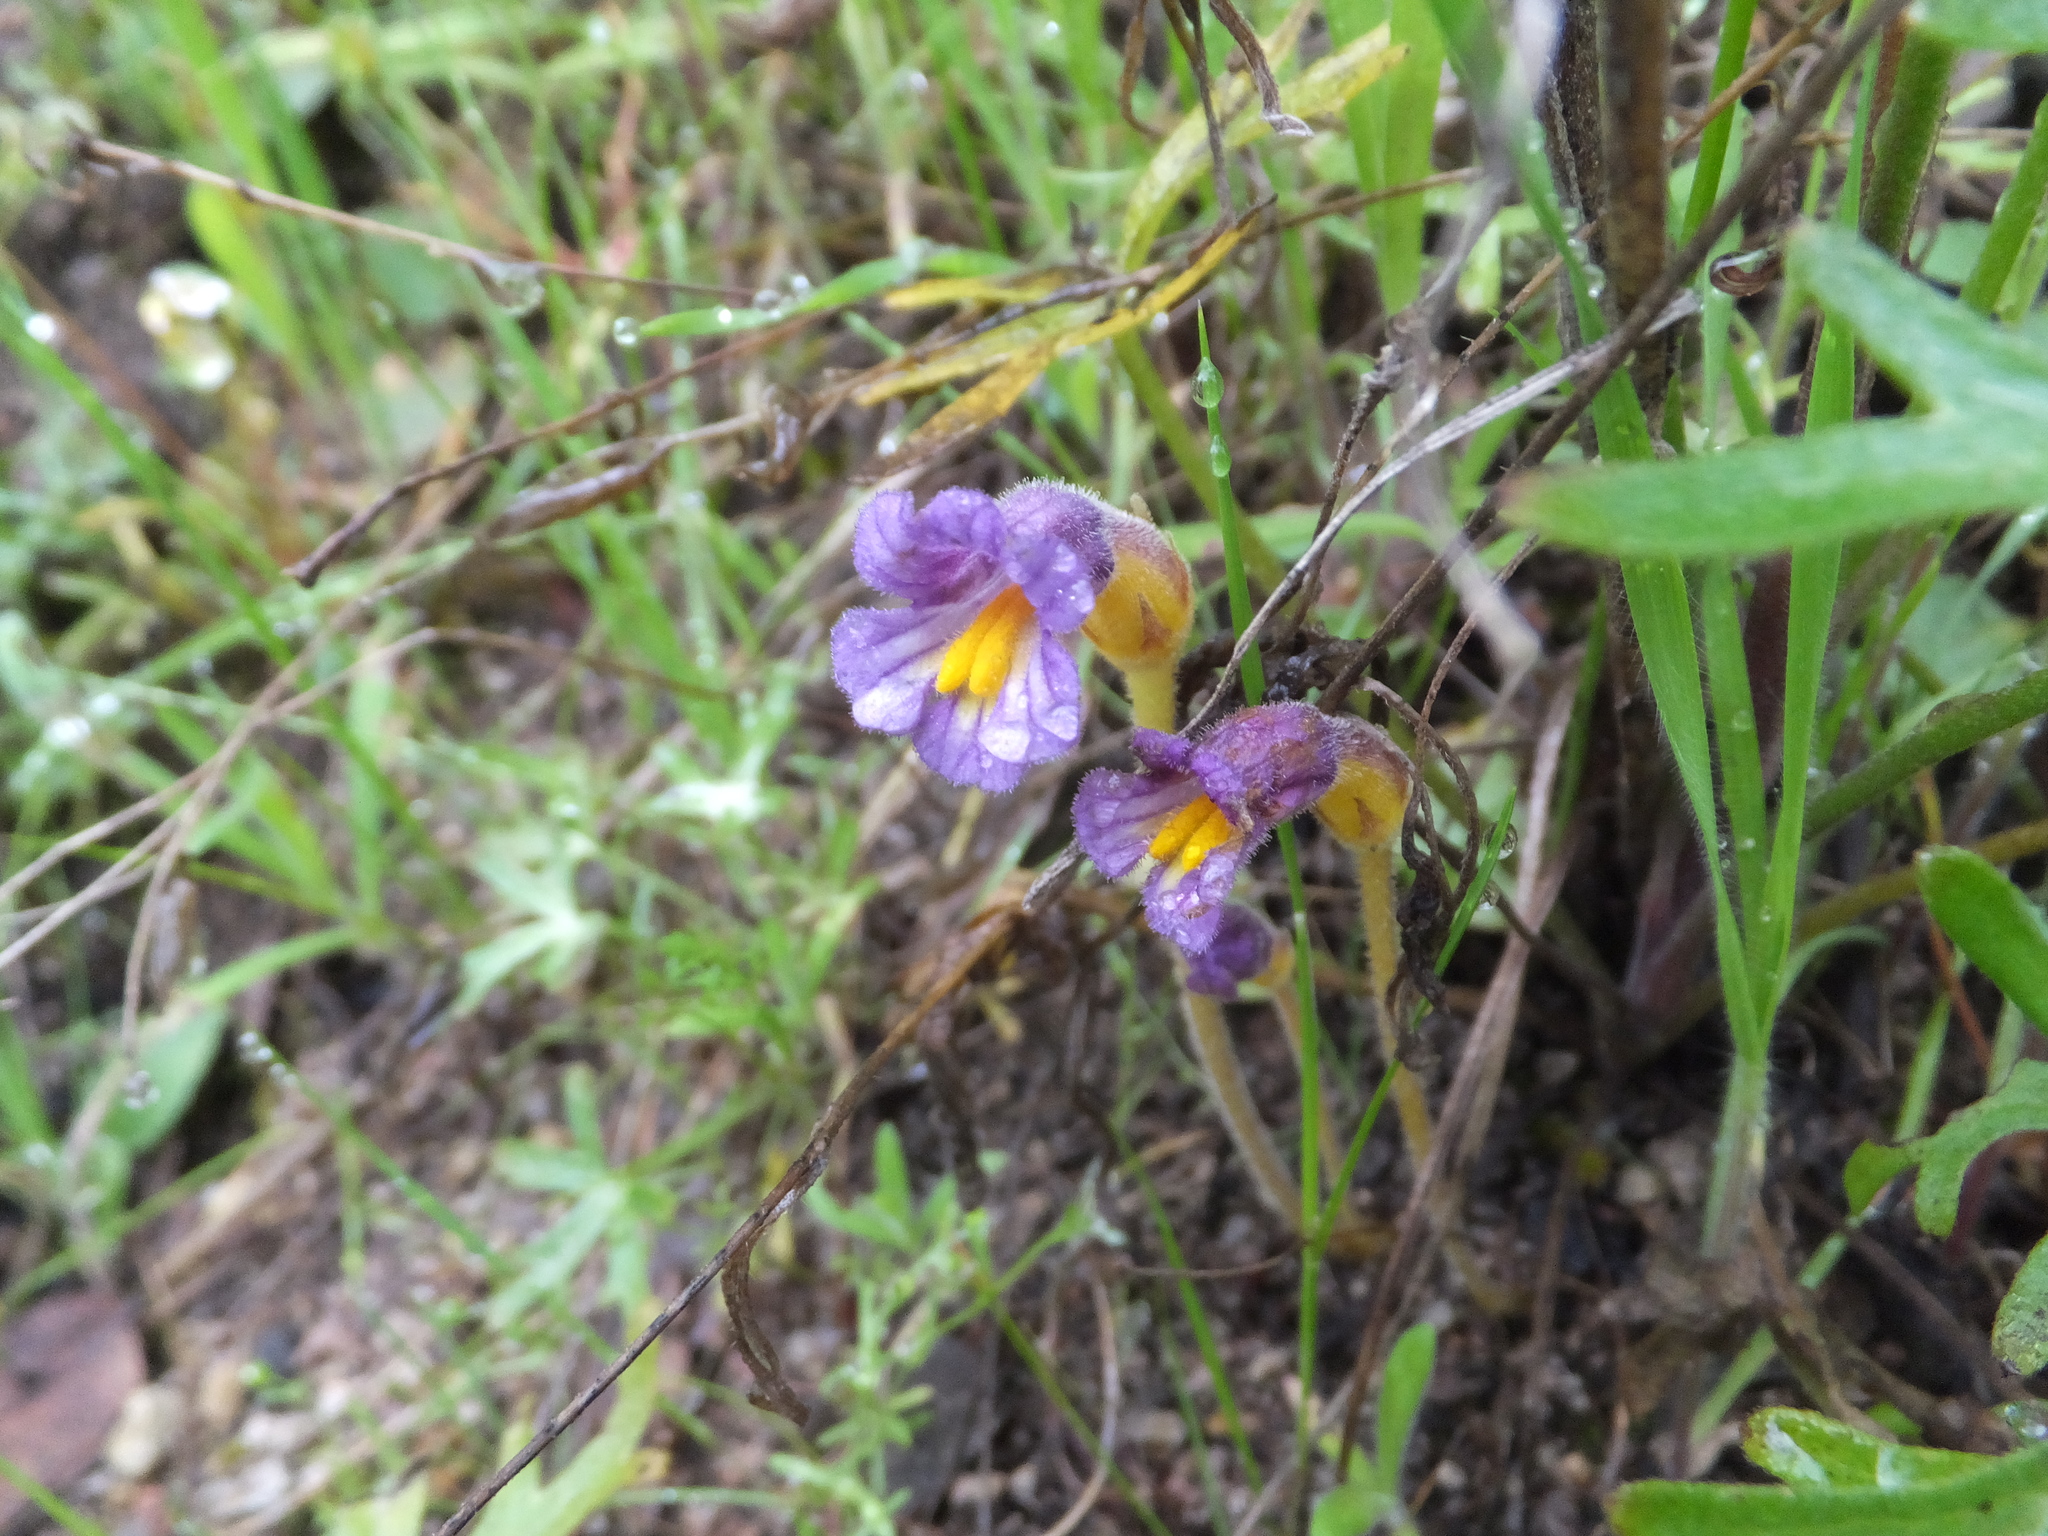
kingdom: Plantae
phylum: Tracheophyta
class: Magnoliopsida
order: Lamiales
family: Orobanchaceae
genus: Aphyllon
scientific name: Aphyllon uniflorum
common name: One-flowered broomrape
